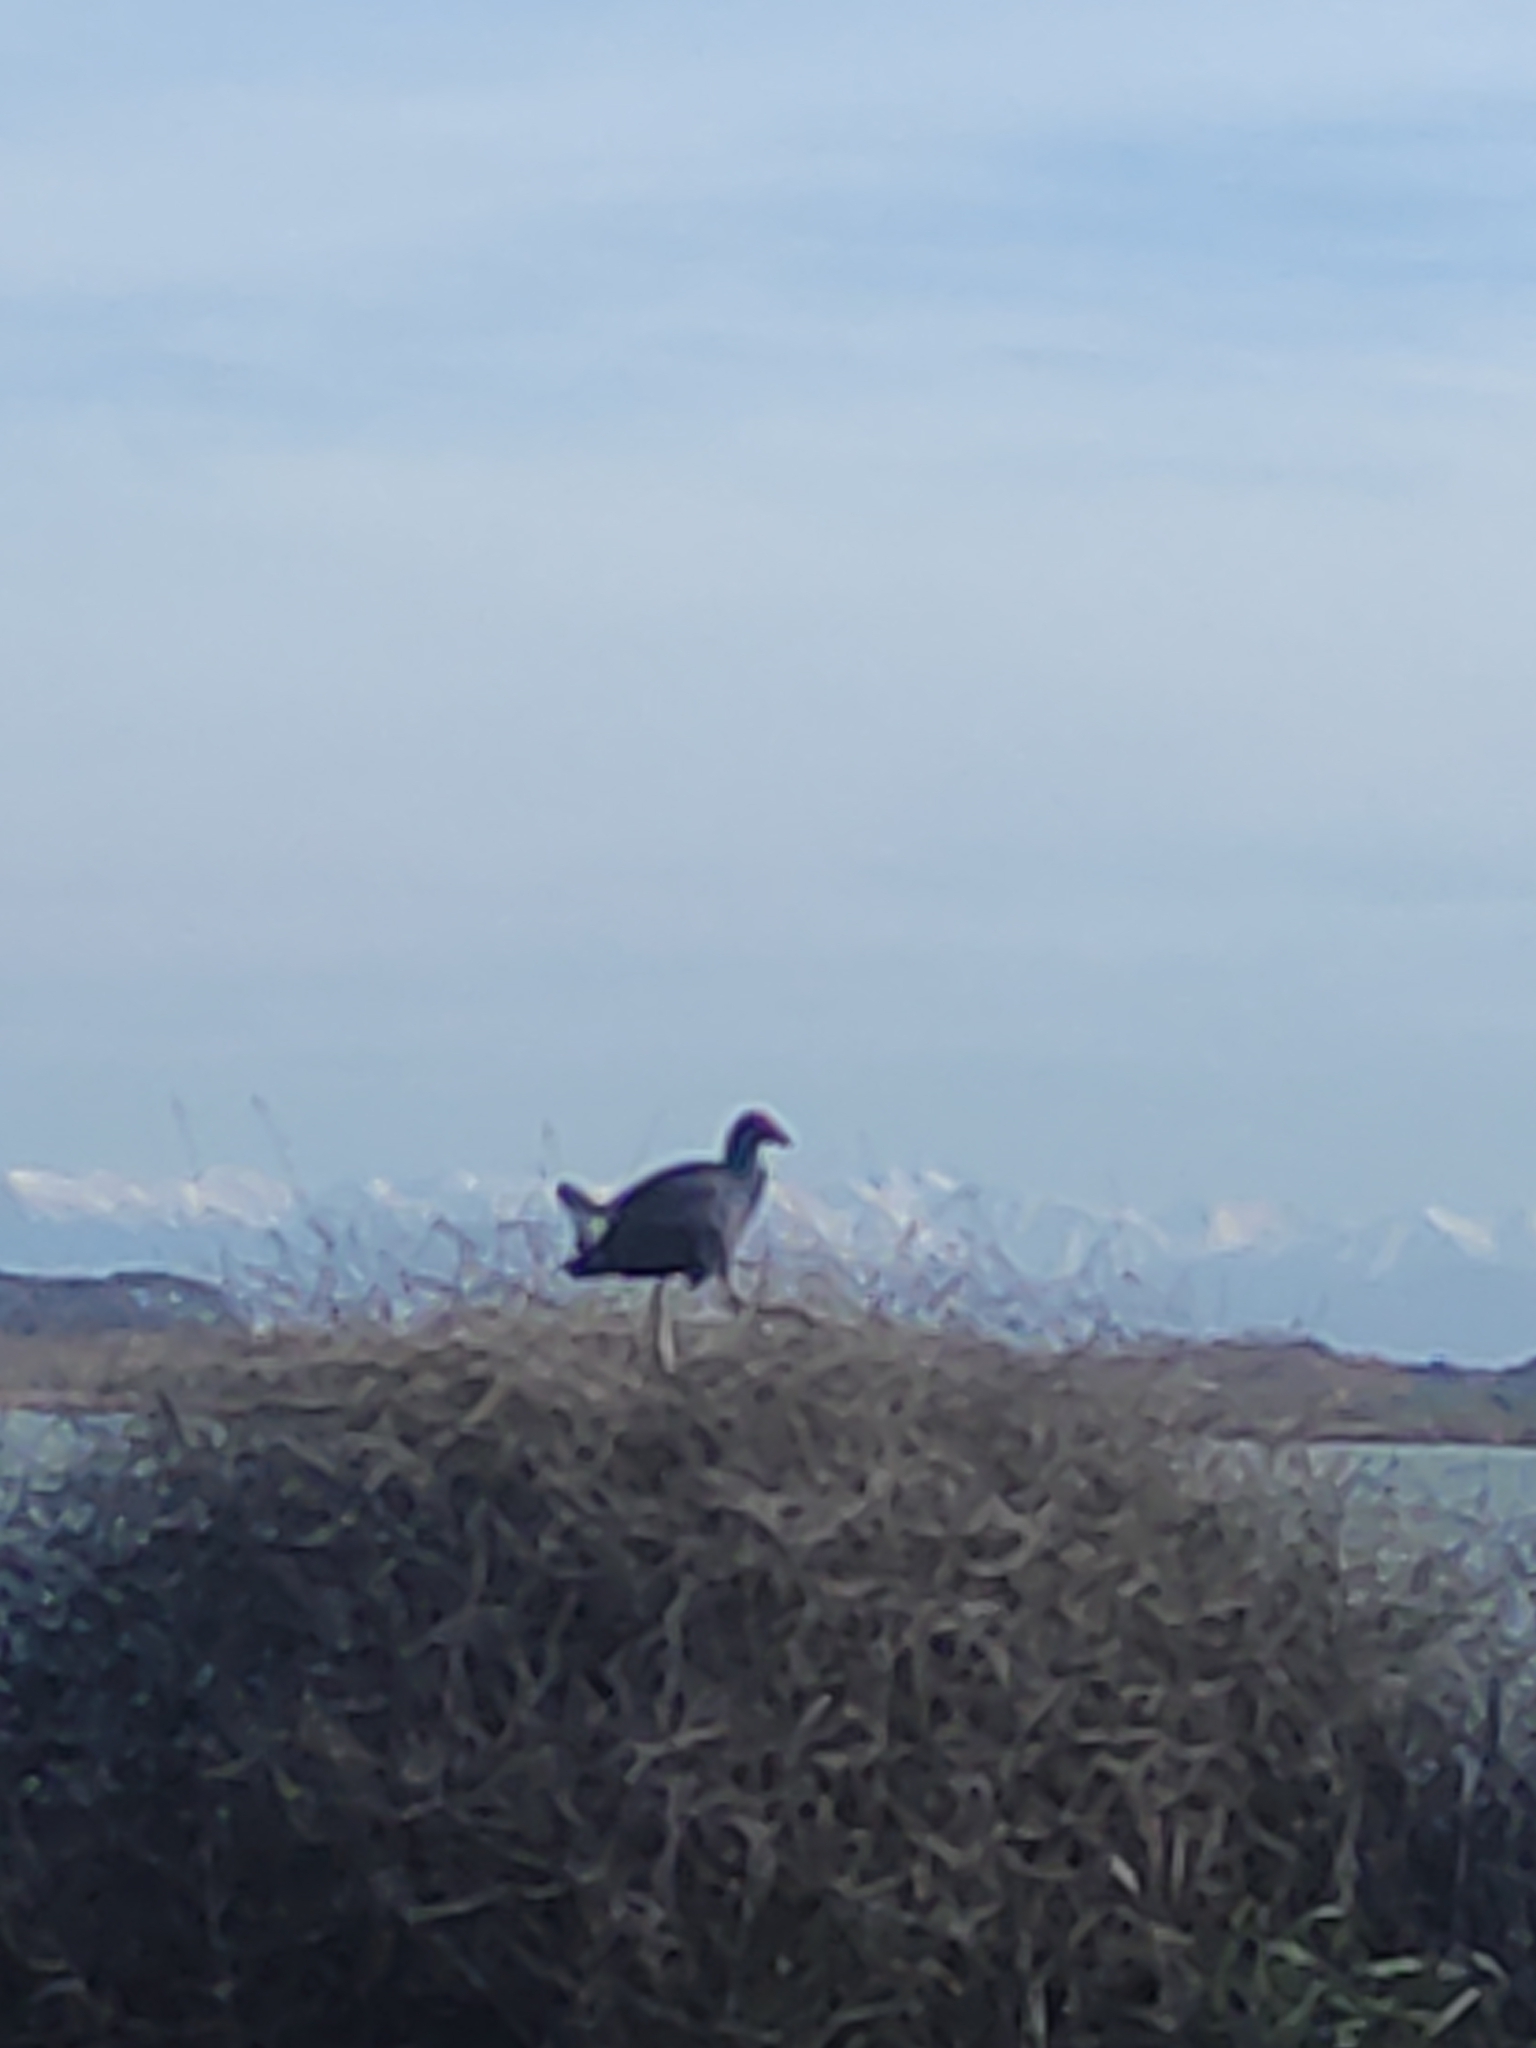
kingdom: Animalia
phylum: Chordata
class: Aves
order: Gruiformes
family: Rallidae
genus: Porphyrio
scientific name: Porphyrio melanotus
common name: Australasian swamphen
